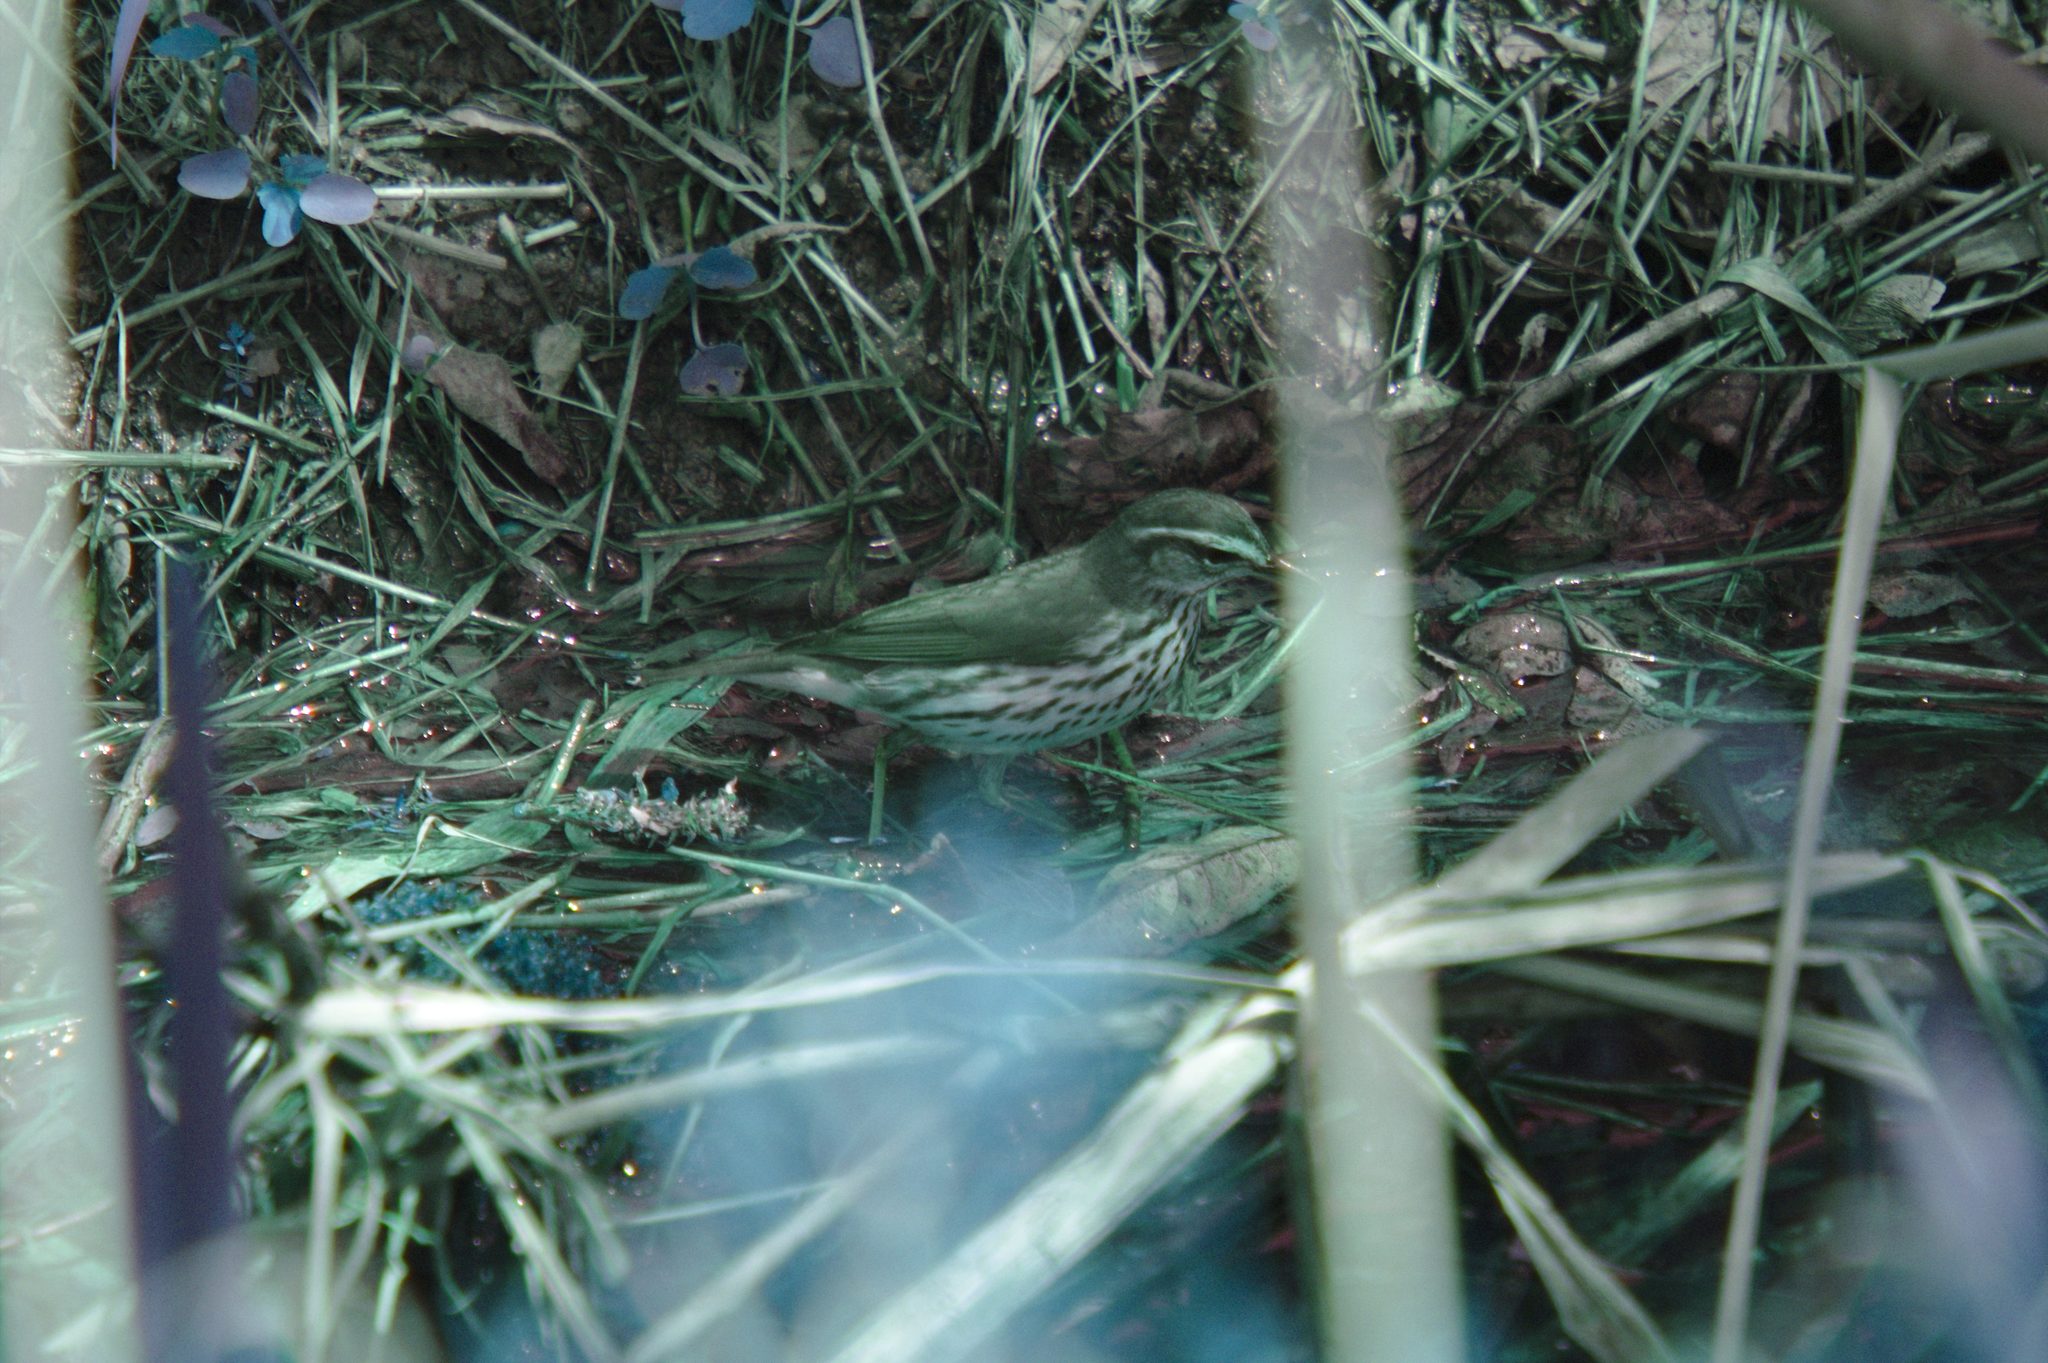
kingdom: Animalia
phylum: Chordata
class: Aves
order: Passeriformes
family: Parulidae
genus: Parkesia
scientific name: Parkesia noveboracensis
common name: Northern waterthrush
